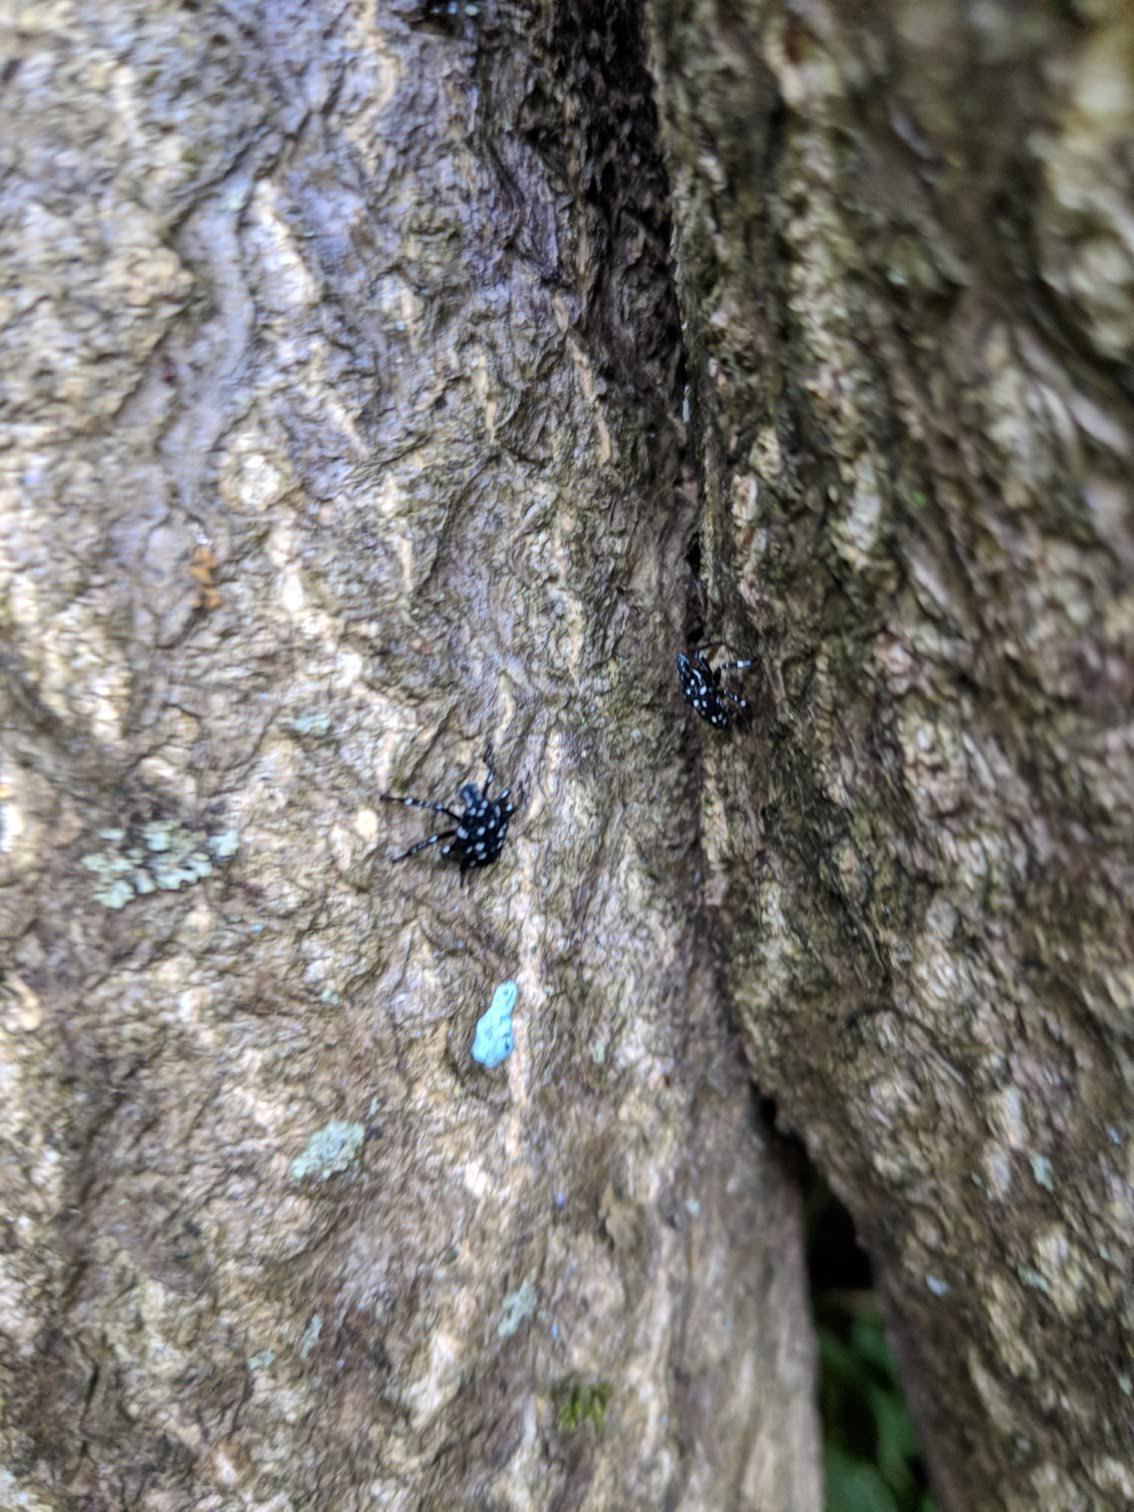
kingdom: Animalia
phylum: Arthropoda
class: Insecta
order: Hemiptera
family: Fulgoridae
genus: Lycorma
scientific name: Lycorma delicatula
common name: Spotted lanternfly
